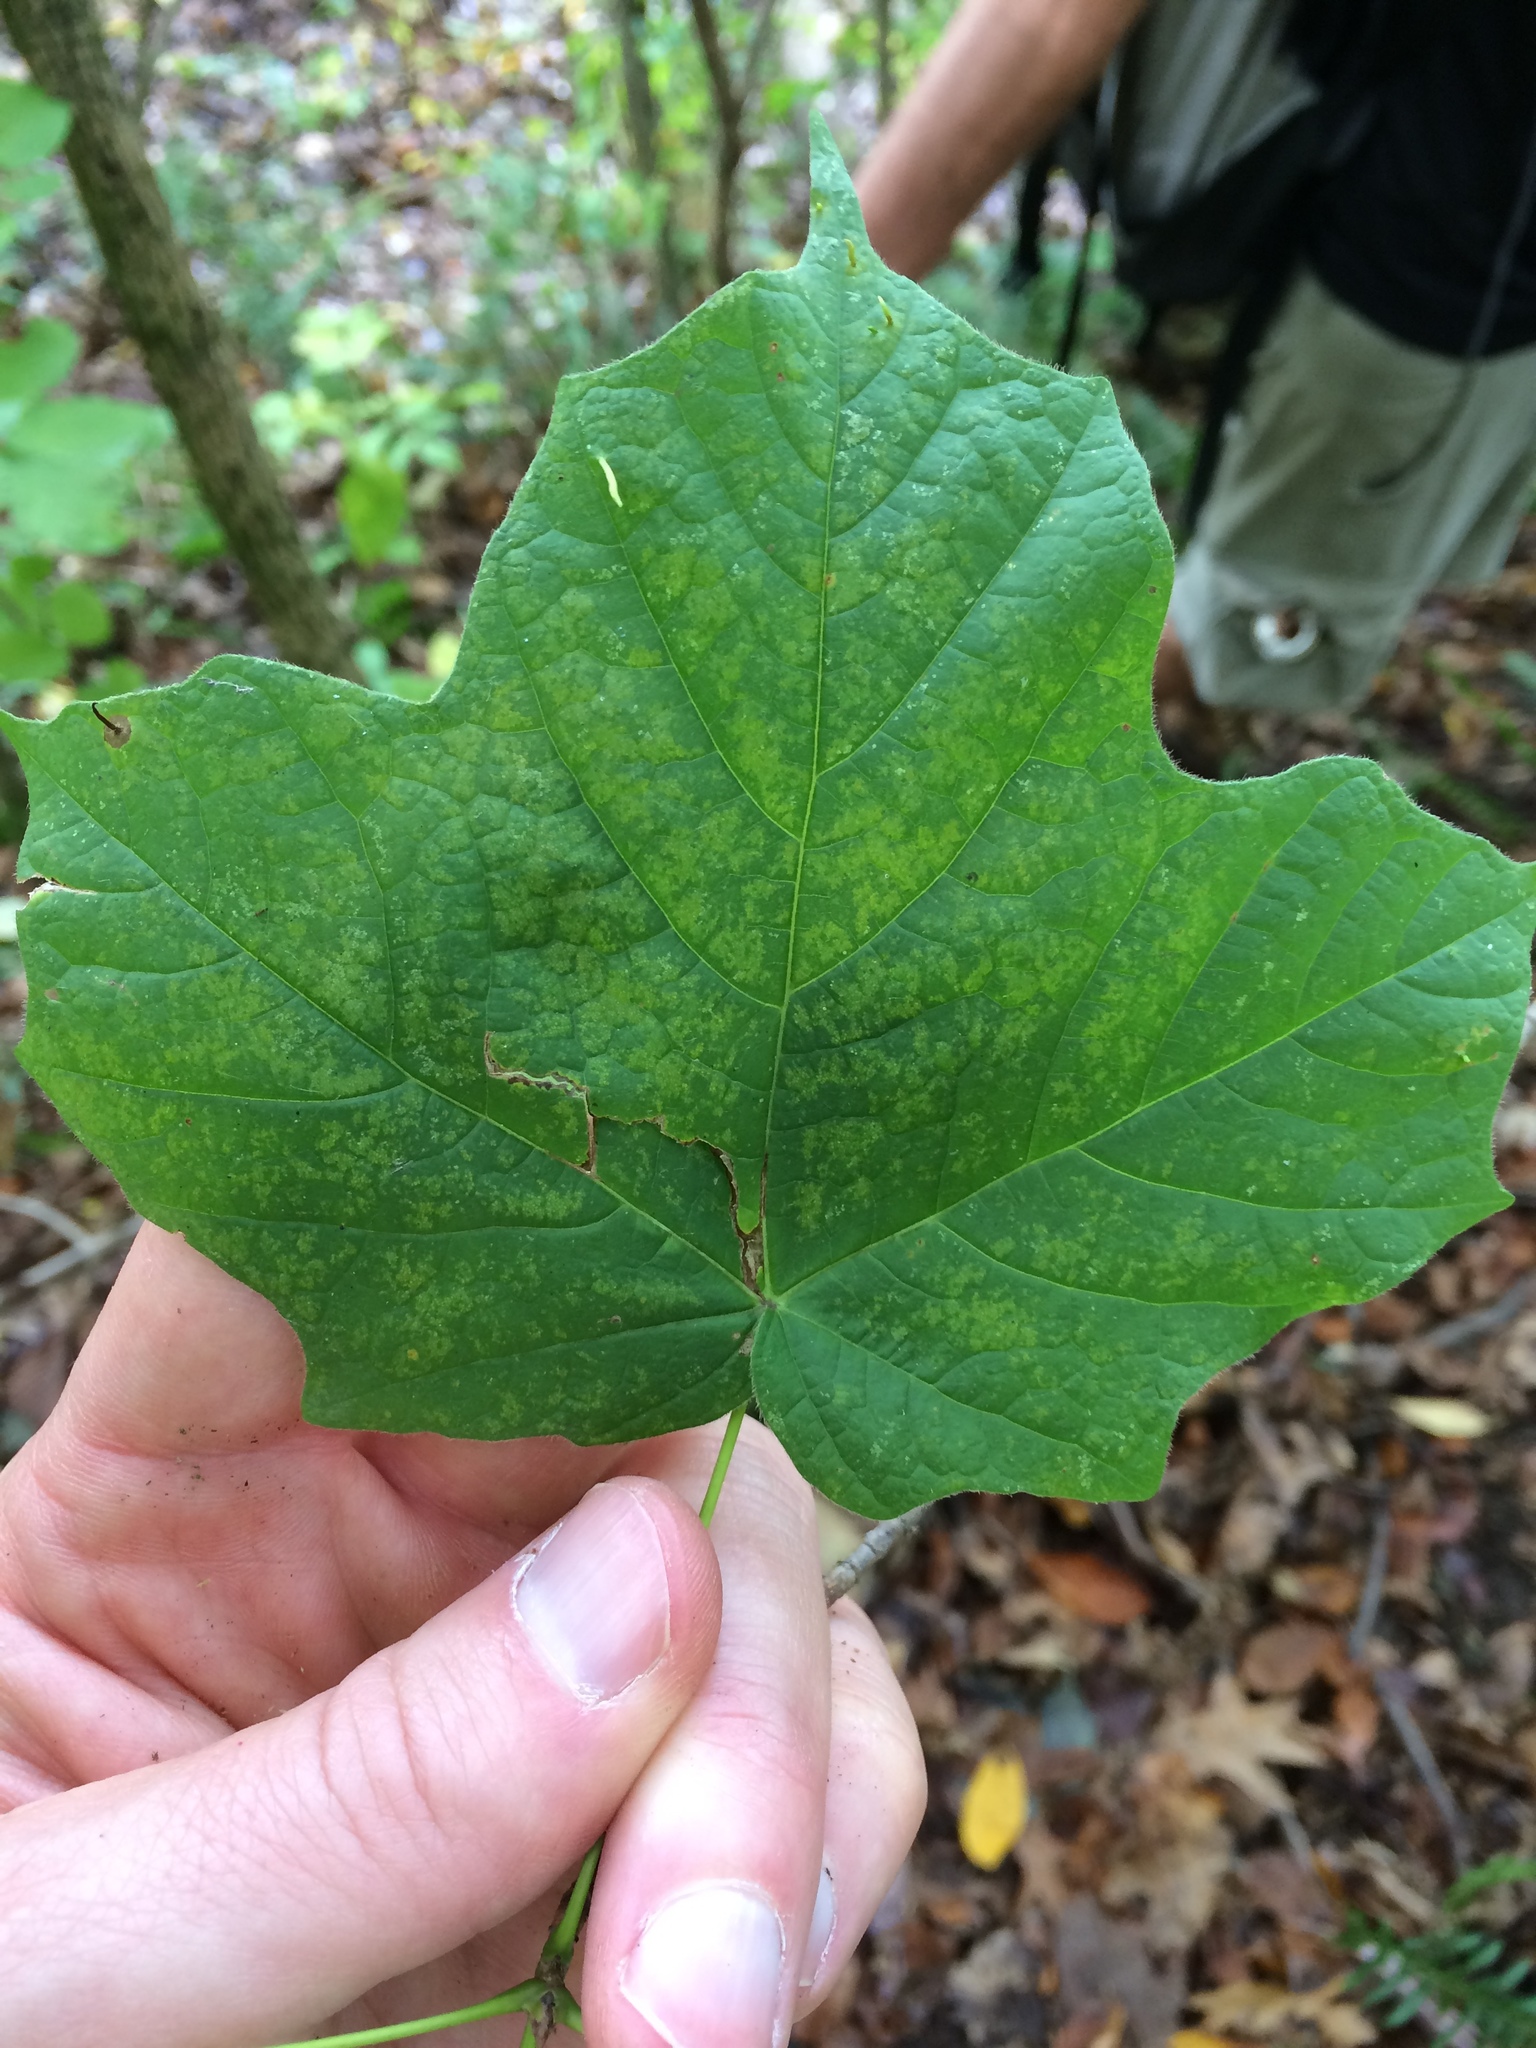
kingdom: Plantae
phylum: Tracheophyta
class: Magnoliopsida
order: Sapindales
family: Sapindaceae
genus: Acer
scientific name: Acer nigrum
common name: Black maple
